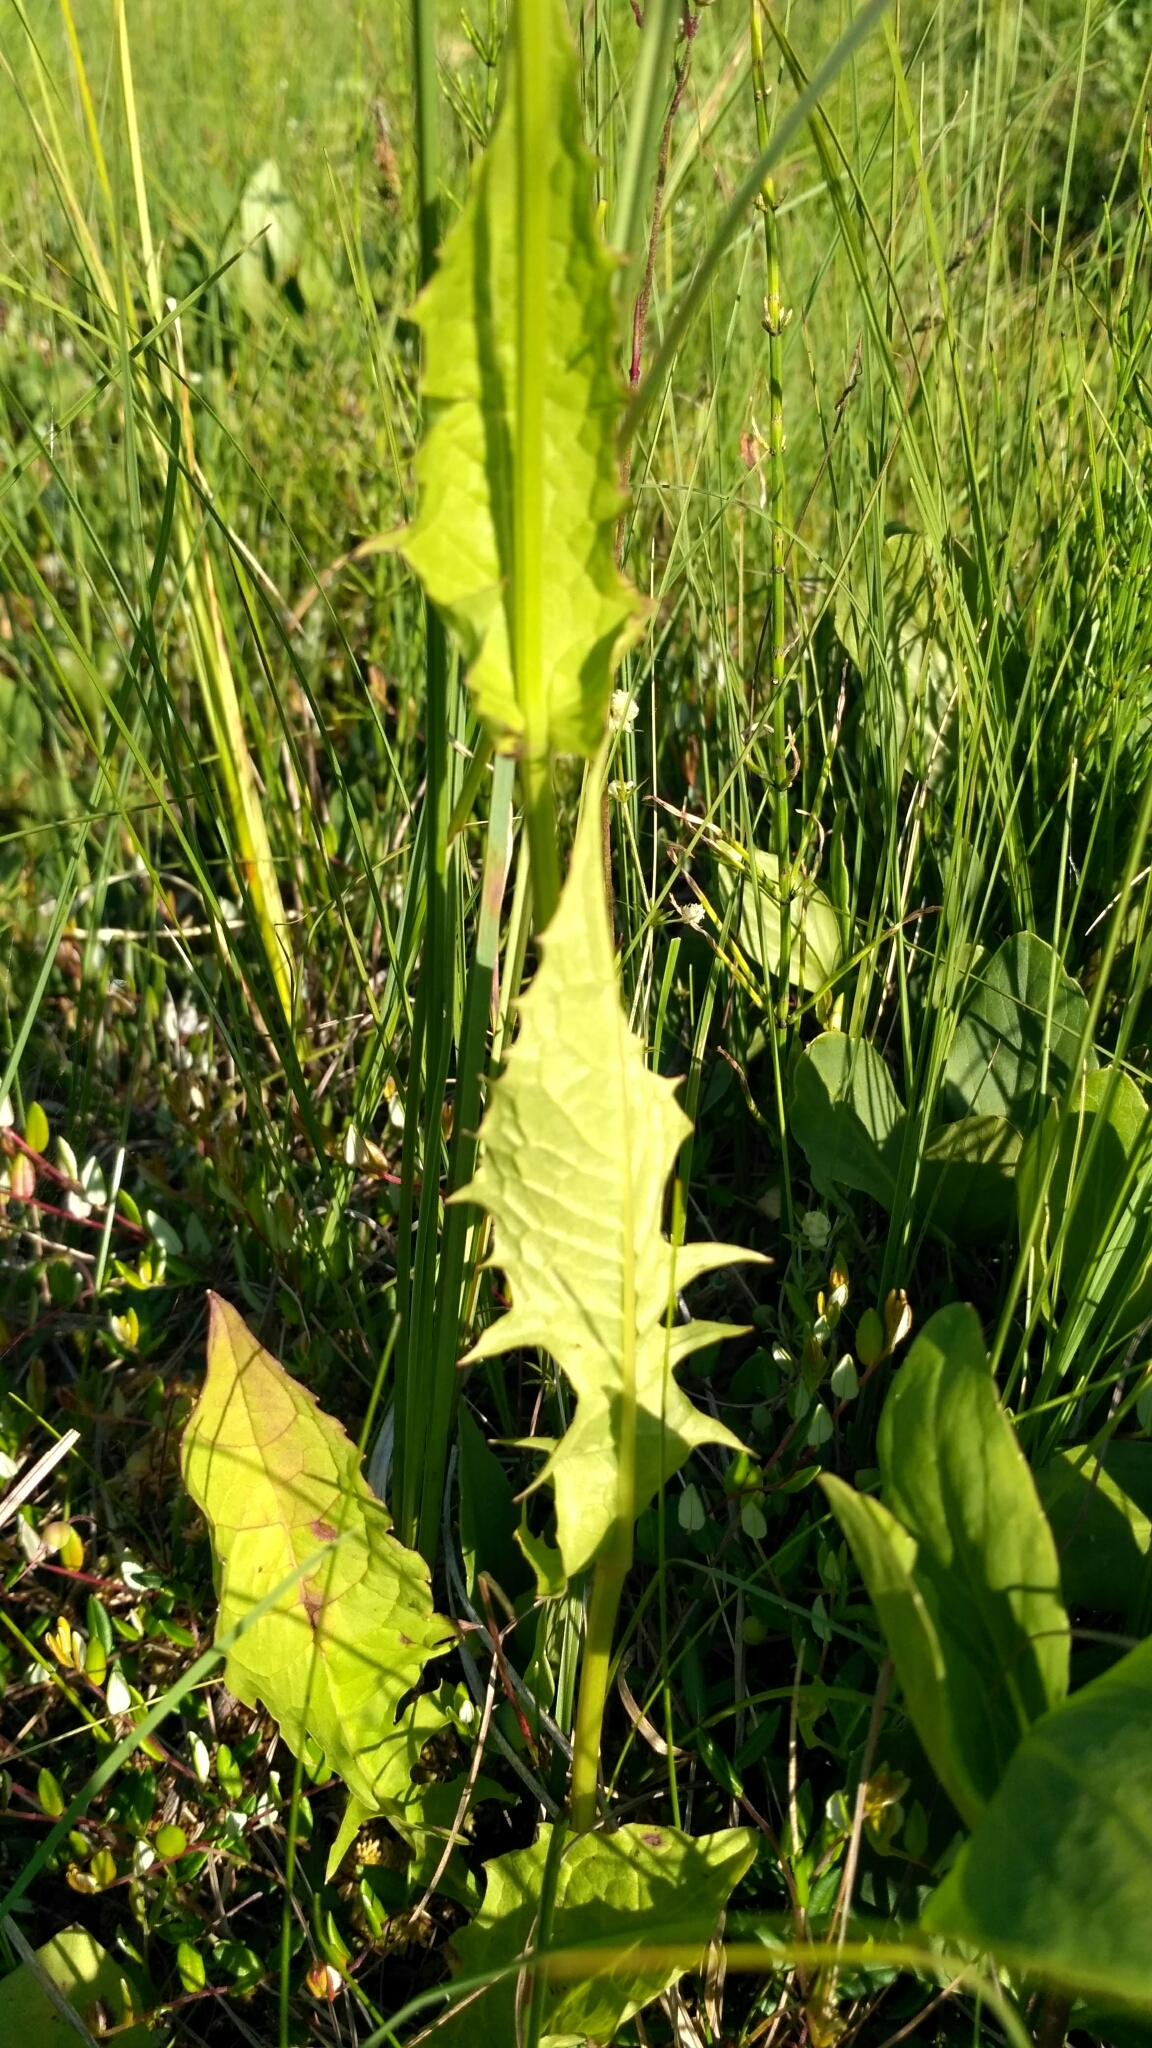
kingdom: Plantae
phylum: Tracheophyta
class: Magnoliopsida
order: Asterales
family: Asteraceae
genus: Crepis
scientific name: Crepis paludosa
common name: Marsh hawk's-beard
